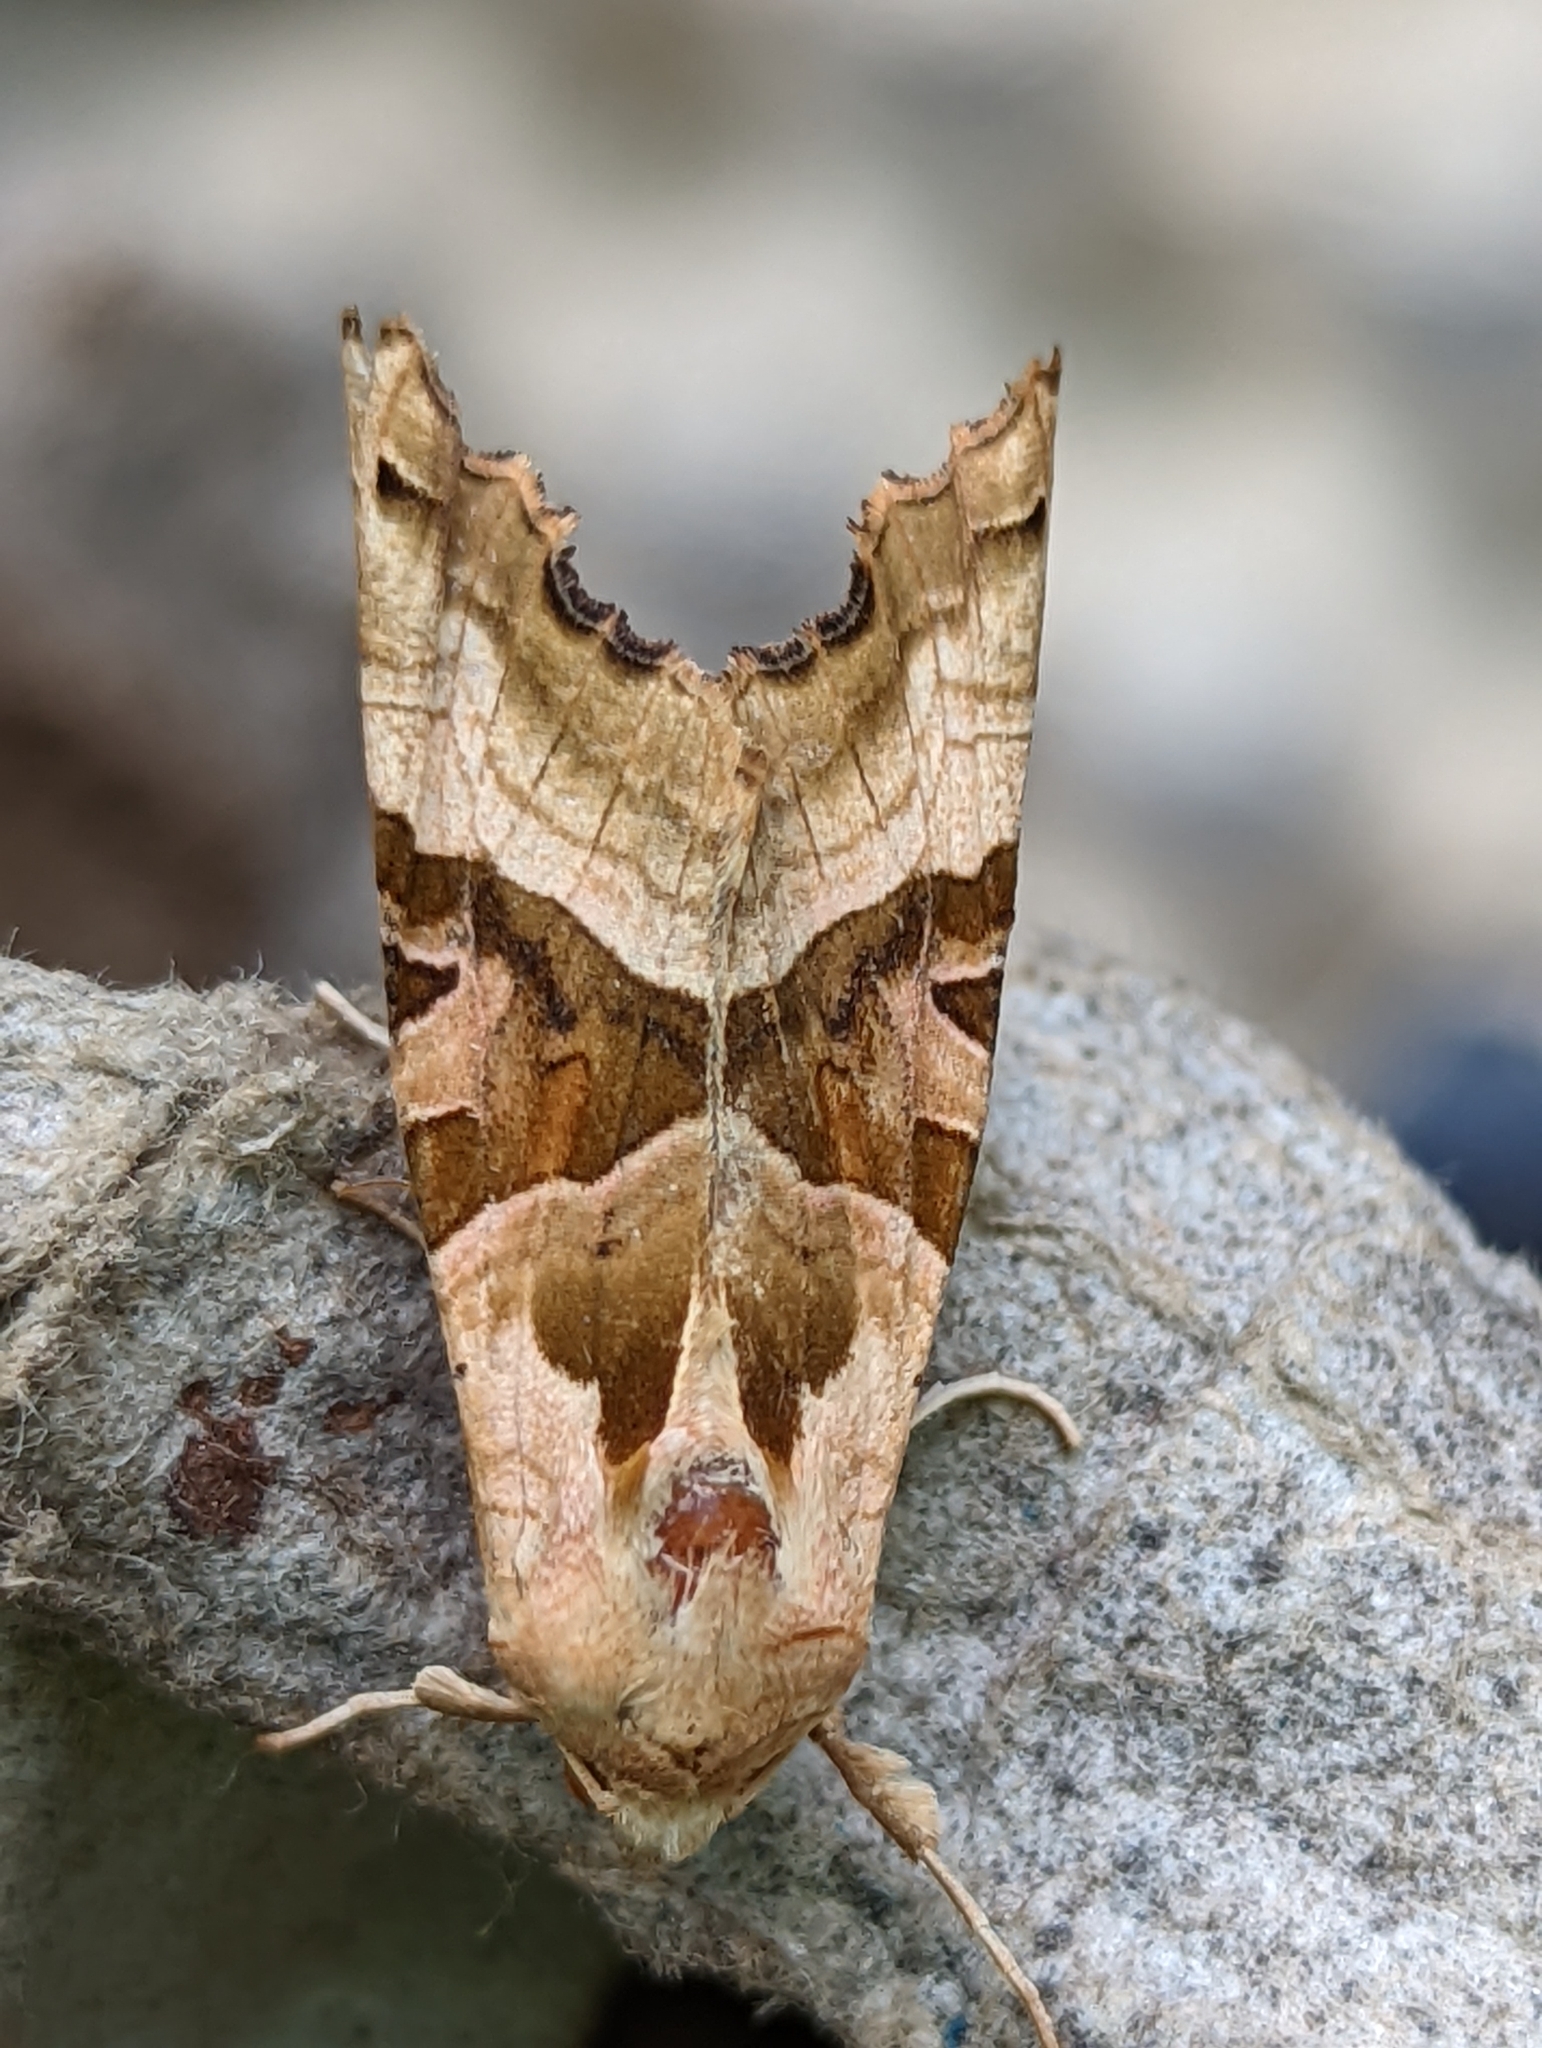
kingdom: Animalia
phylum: Arthropoda
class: Insecta
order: Lepidoptera
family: Noctuidae
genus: Phlogophora
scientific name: Phlogophora meticulosa
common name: Angle shades
